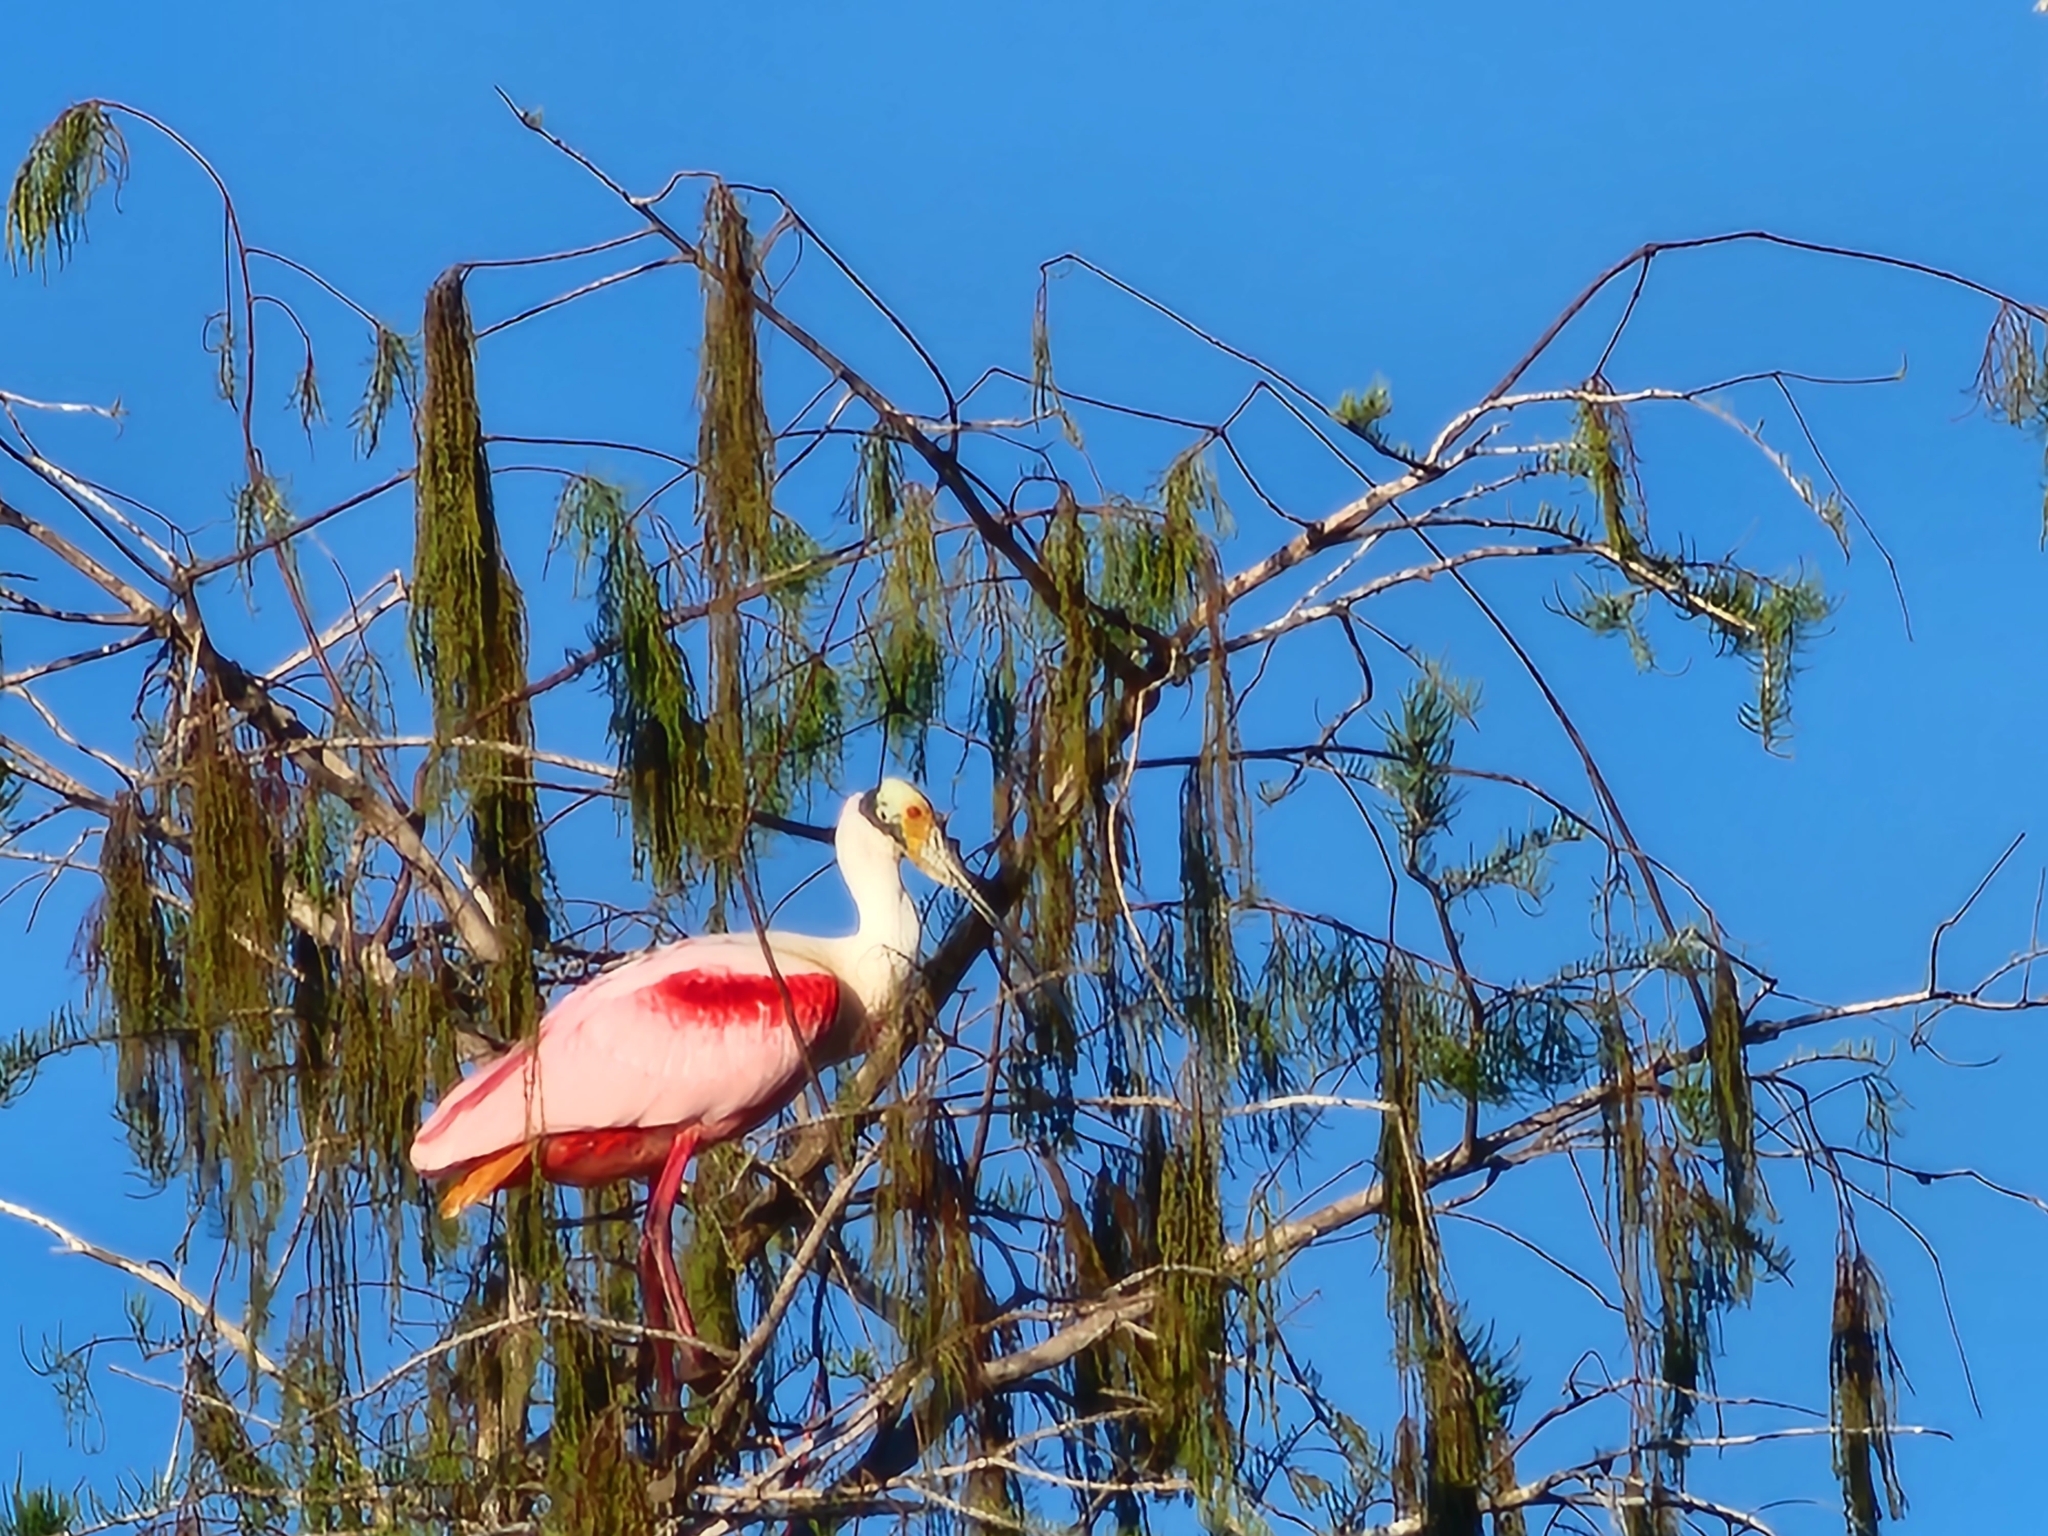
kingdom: Animalia
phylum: Chordata
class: Aves
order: Pelecaniformes
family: Threskiornithidae
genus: Platalea
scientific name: Platalea ajaja
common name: Roseate spoonbill
